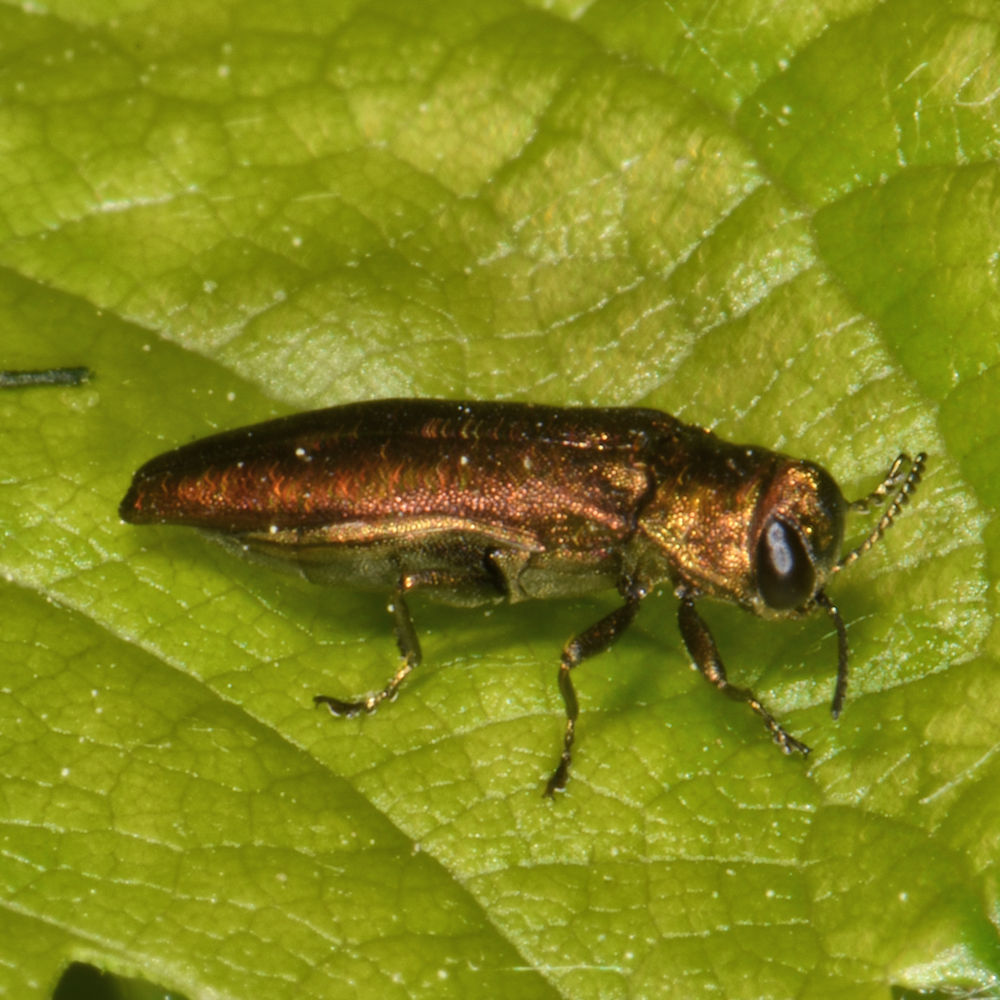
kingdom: Animalia
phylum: Arthropoda
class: Insecta
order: Coleoptera
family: Buprestidae
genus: Agrilus
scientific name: Agrilus cuprescens
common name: Rose stem girdler
